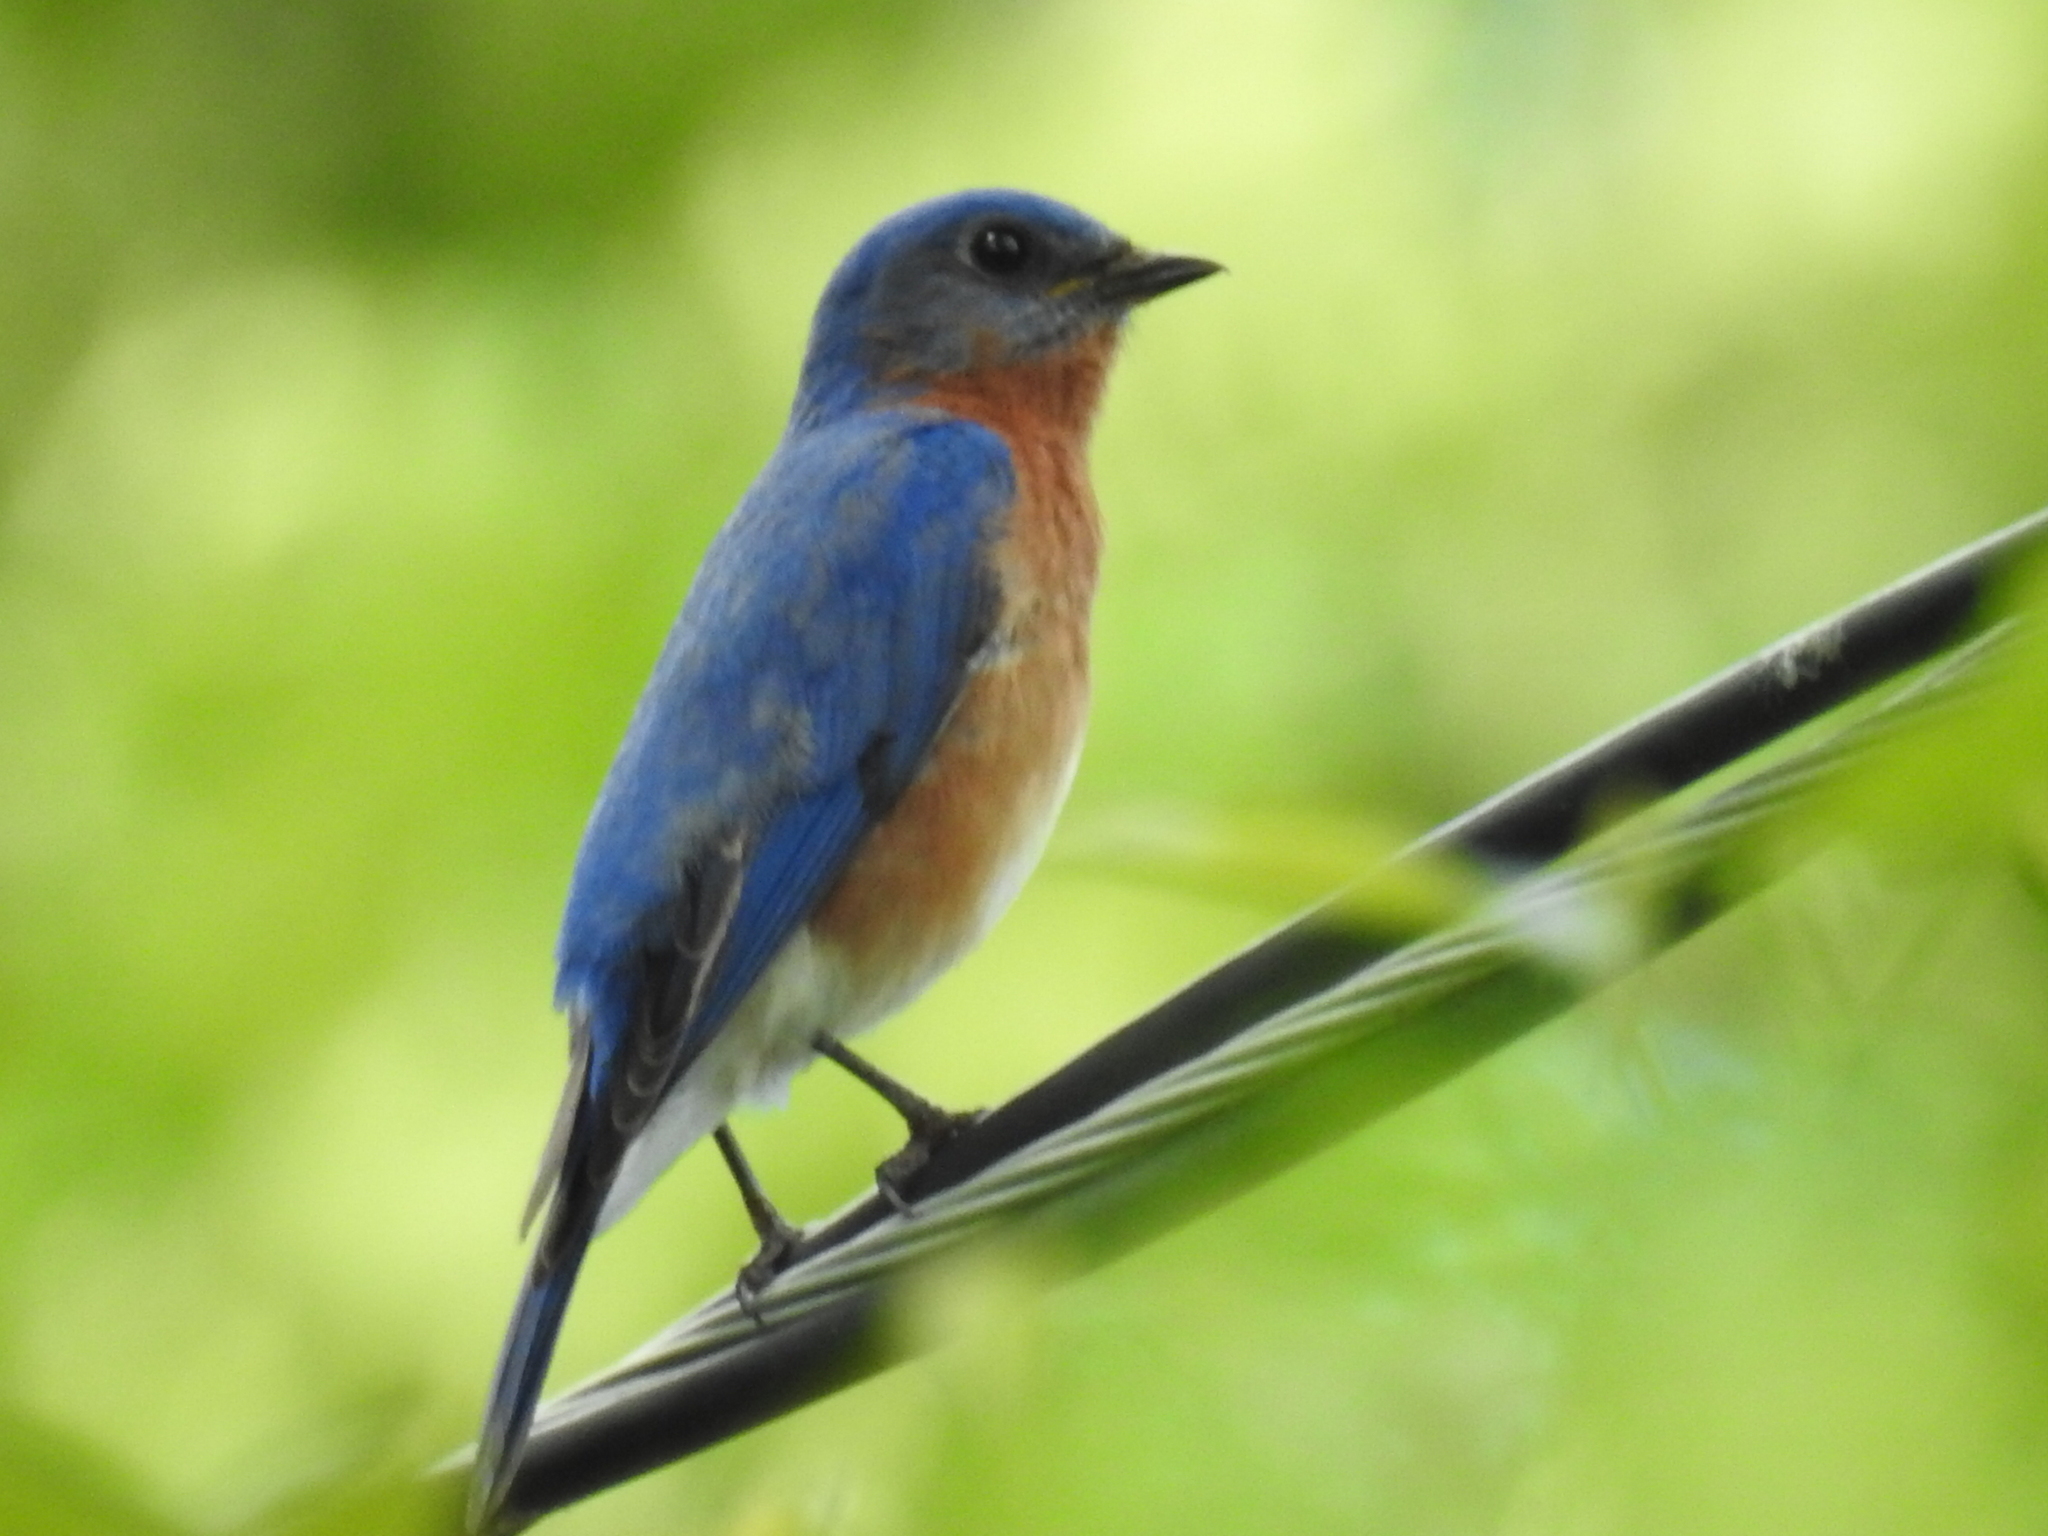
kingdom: Animalia
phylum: Chordata
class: Aves
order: Passeriformes
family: Turdidae
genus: Sialia
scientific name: Sialia sialis
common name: Eastern bluebird
